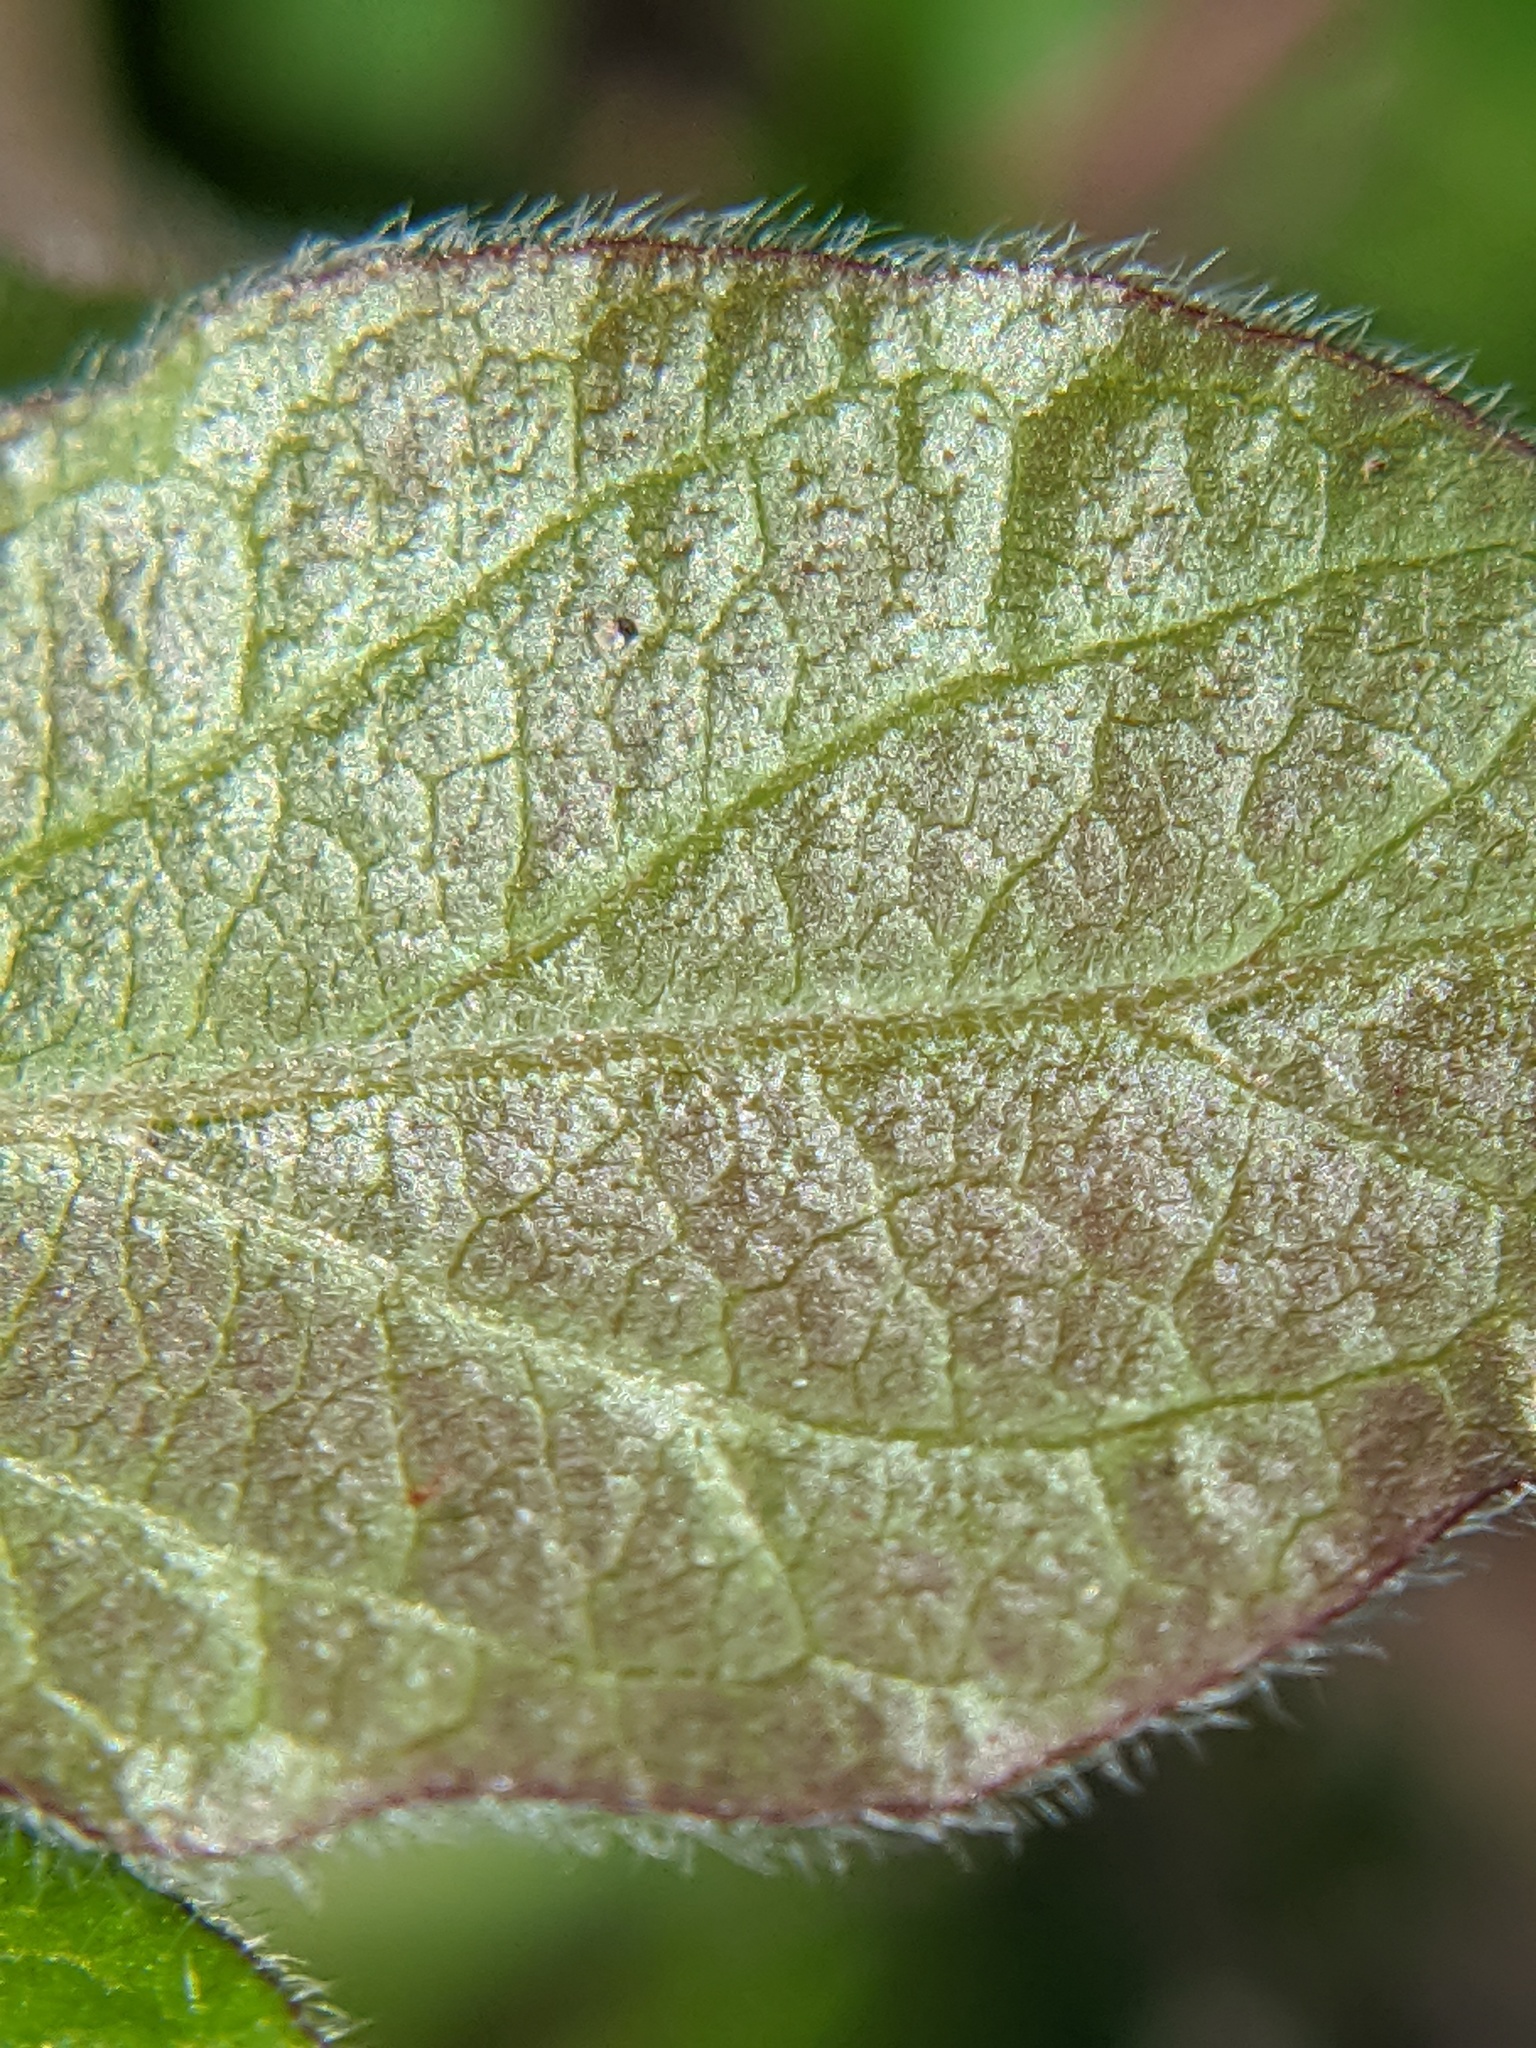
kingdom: Plantae
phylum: Tracheophyta
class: Magnoliopsida
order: Dipsacales
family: Caprifoliaceae
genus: Lonicera
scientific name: Lonicera maackii
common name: Amur honeysuckle
